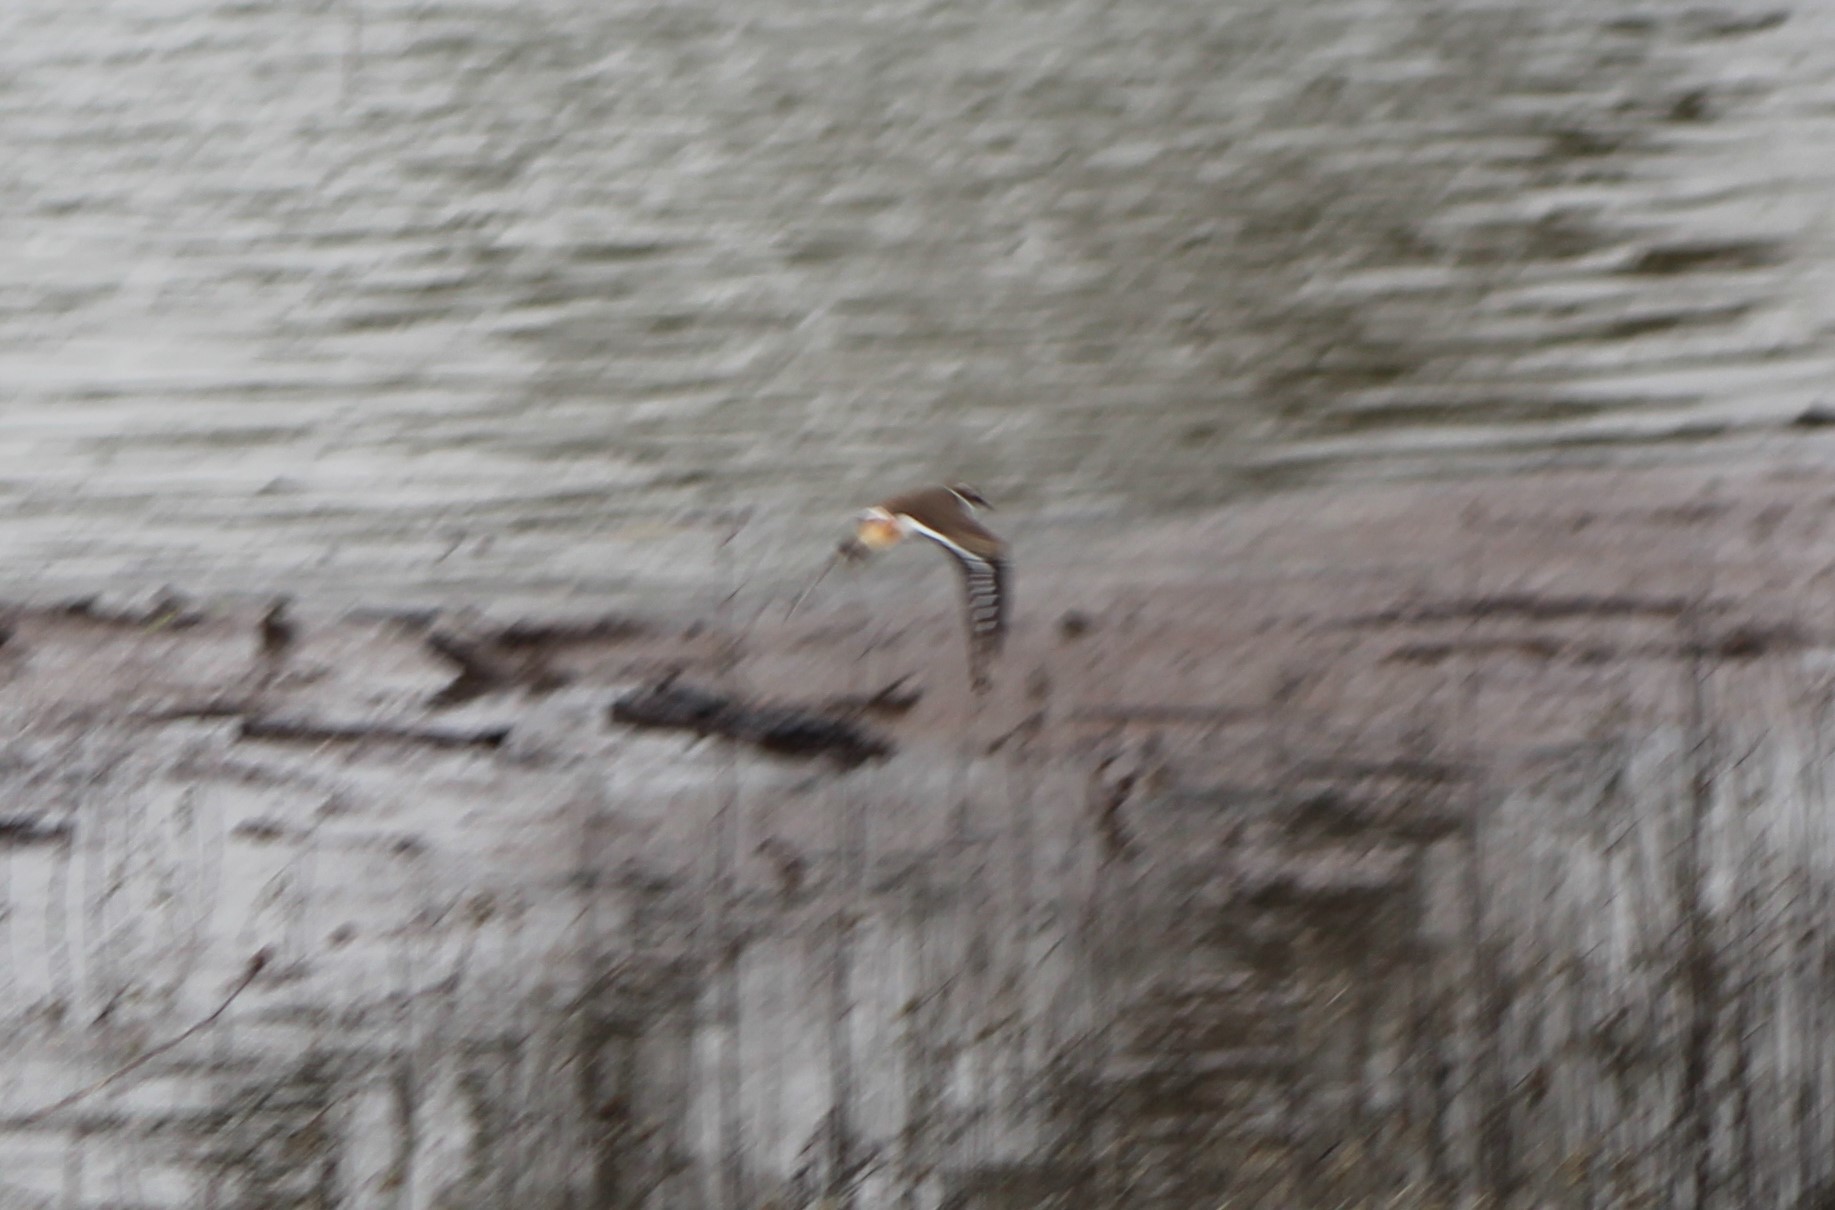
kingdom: Animalia
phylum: Chordata
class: Aves
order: Charadriiformes
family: Charadriidae
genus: Charadrius
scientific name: Charadrius vociferus
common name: Killdeer
